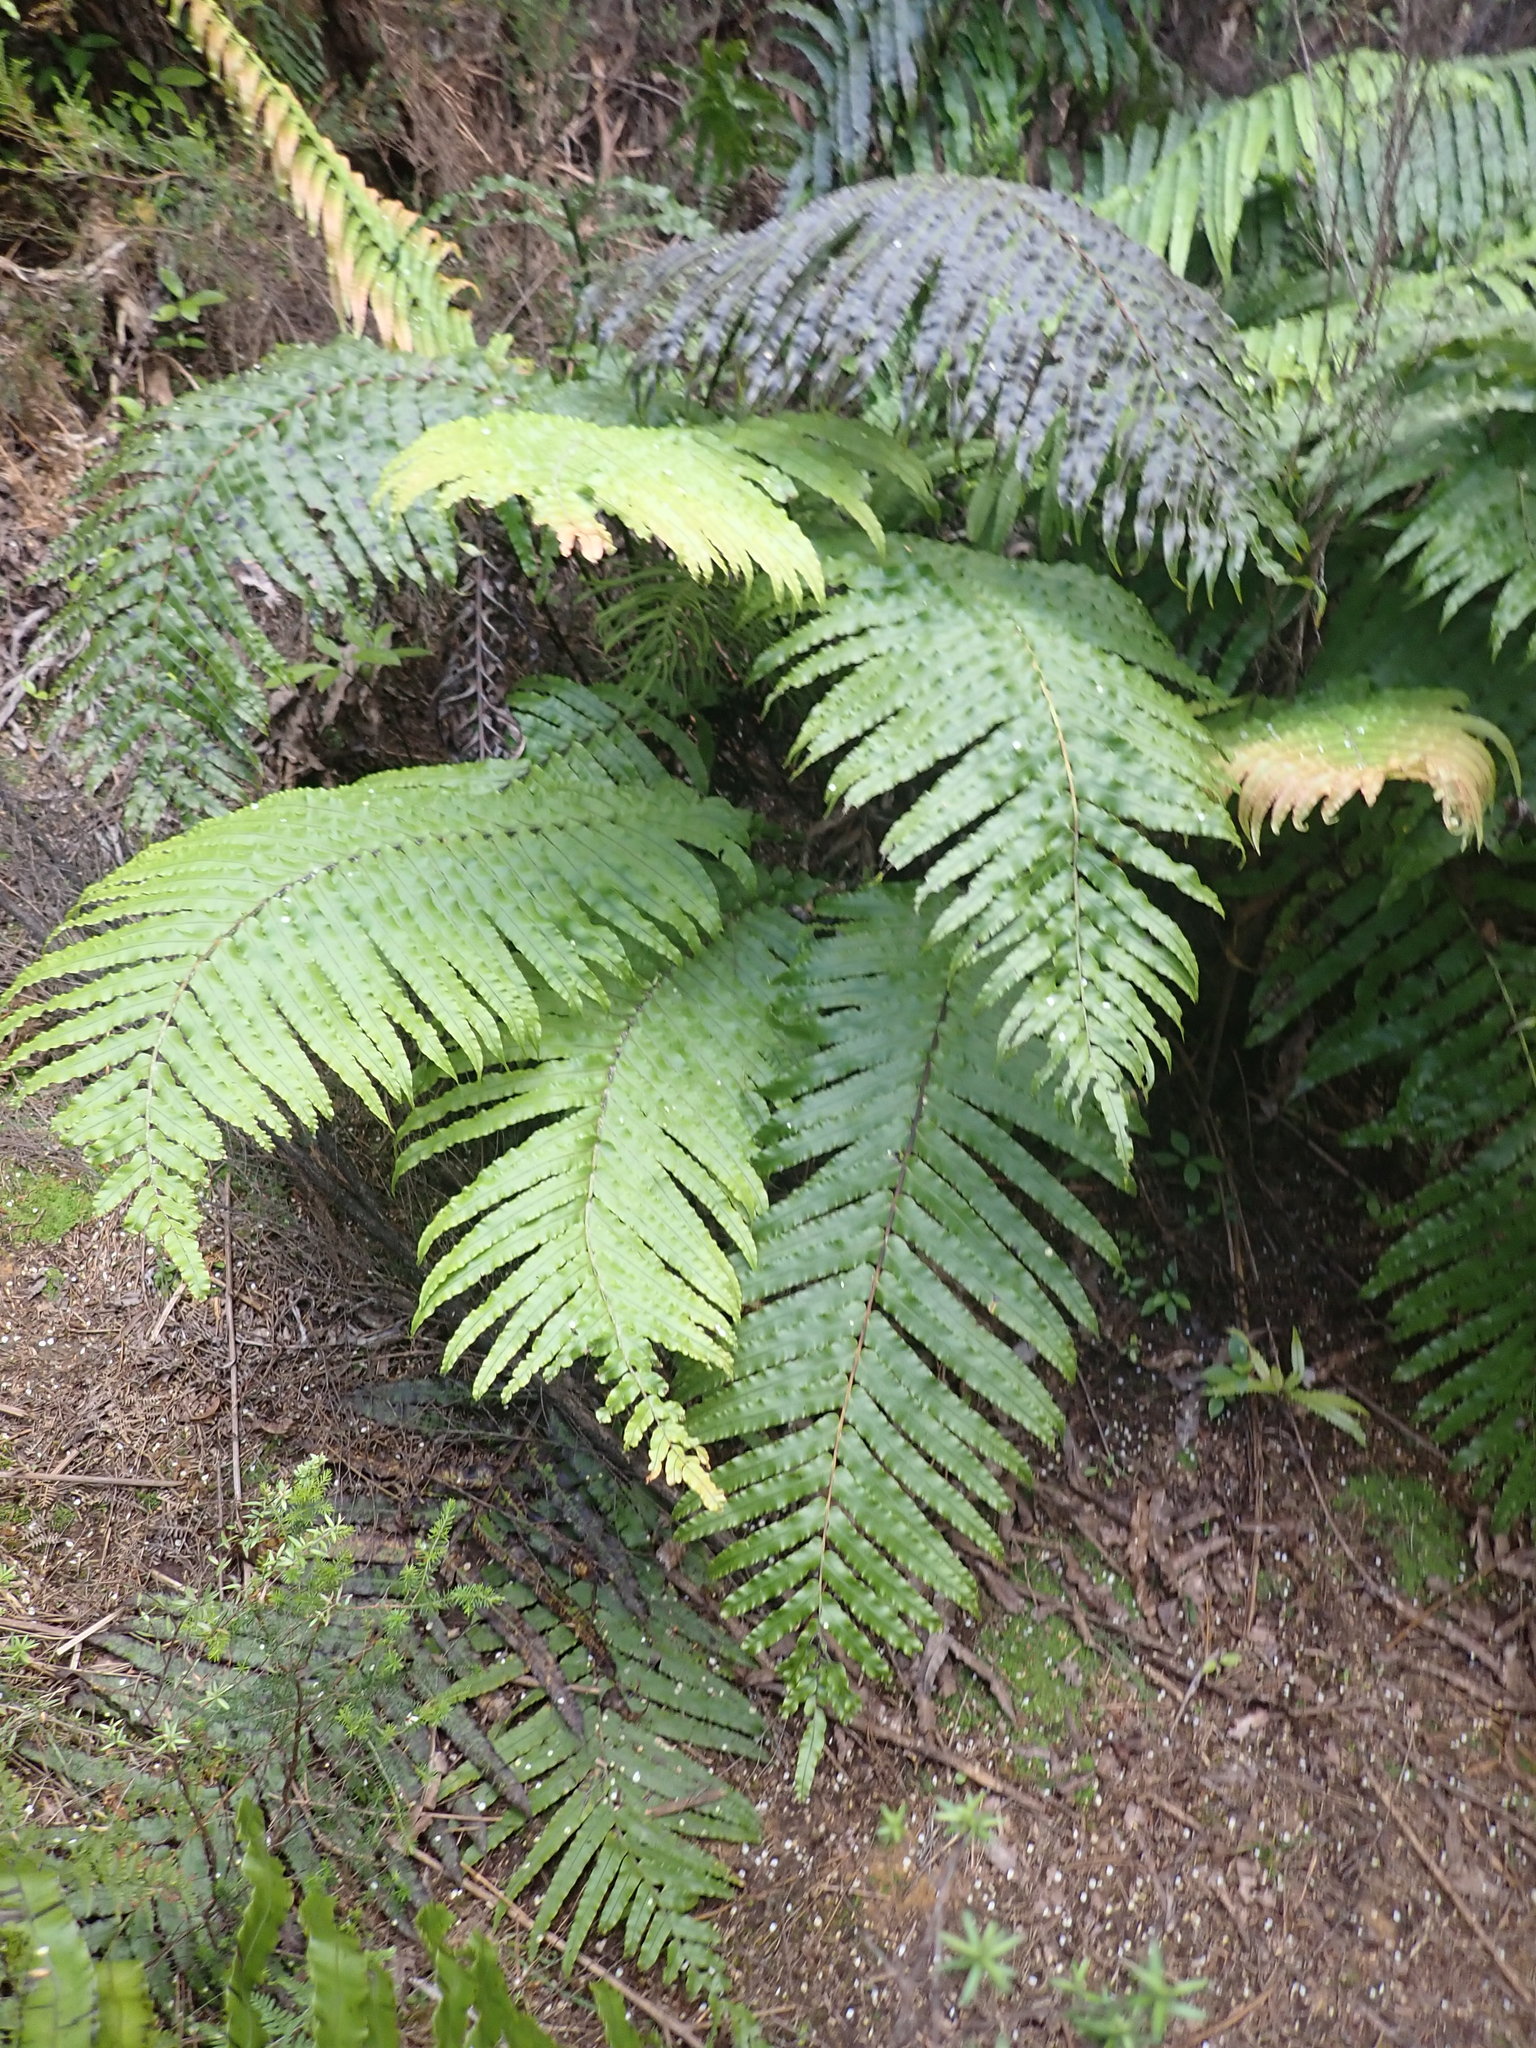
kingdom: Plantae
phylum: Tracheophyta
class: Polypodiopsida
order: Polypodiales
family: Blechnaceae
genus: Parablechnum
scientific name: Parablechnum novae-zelandiae
